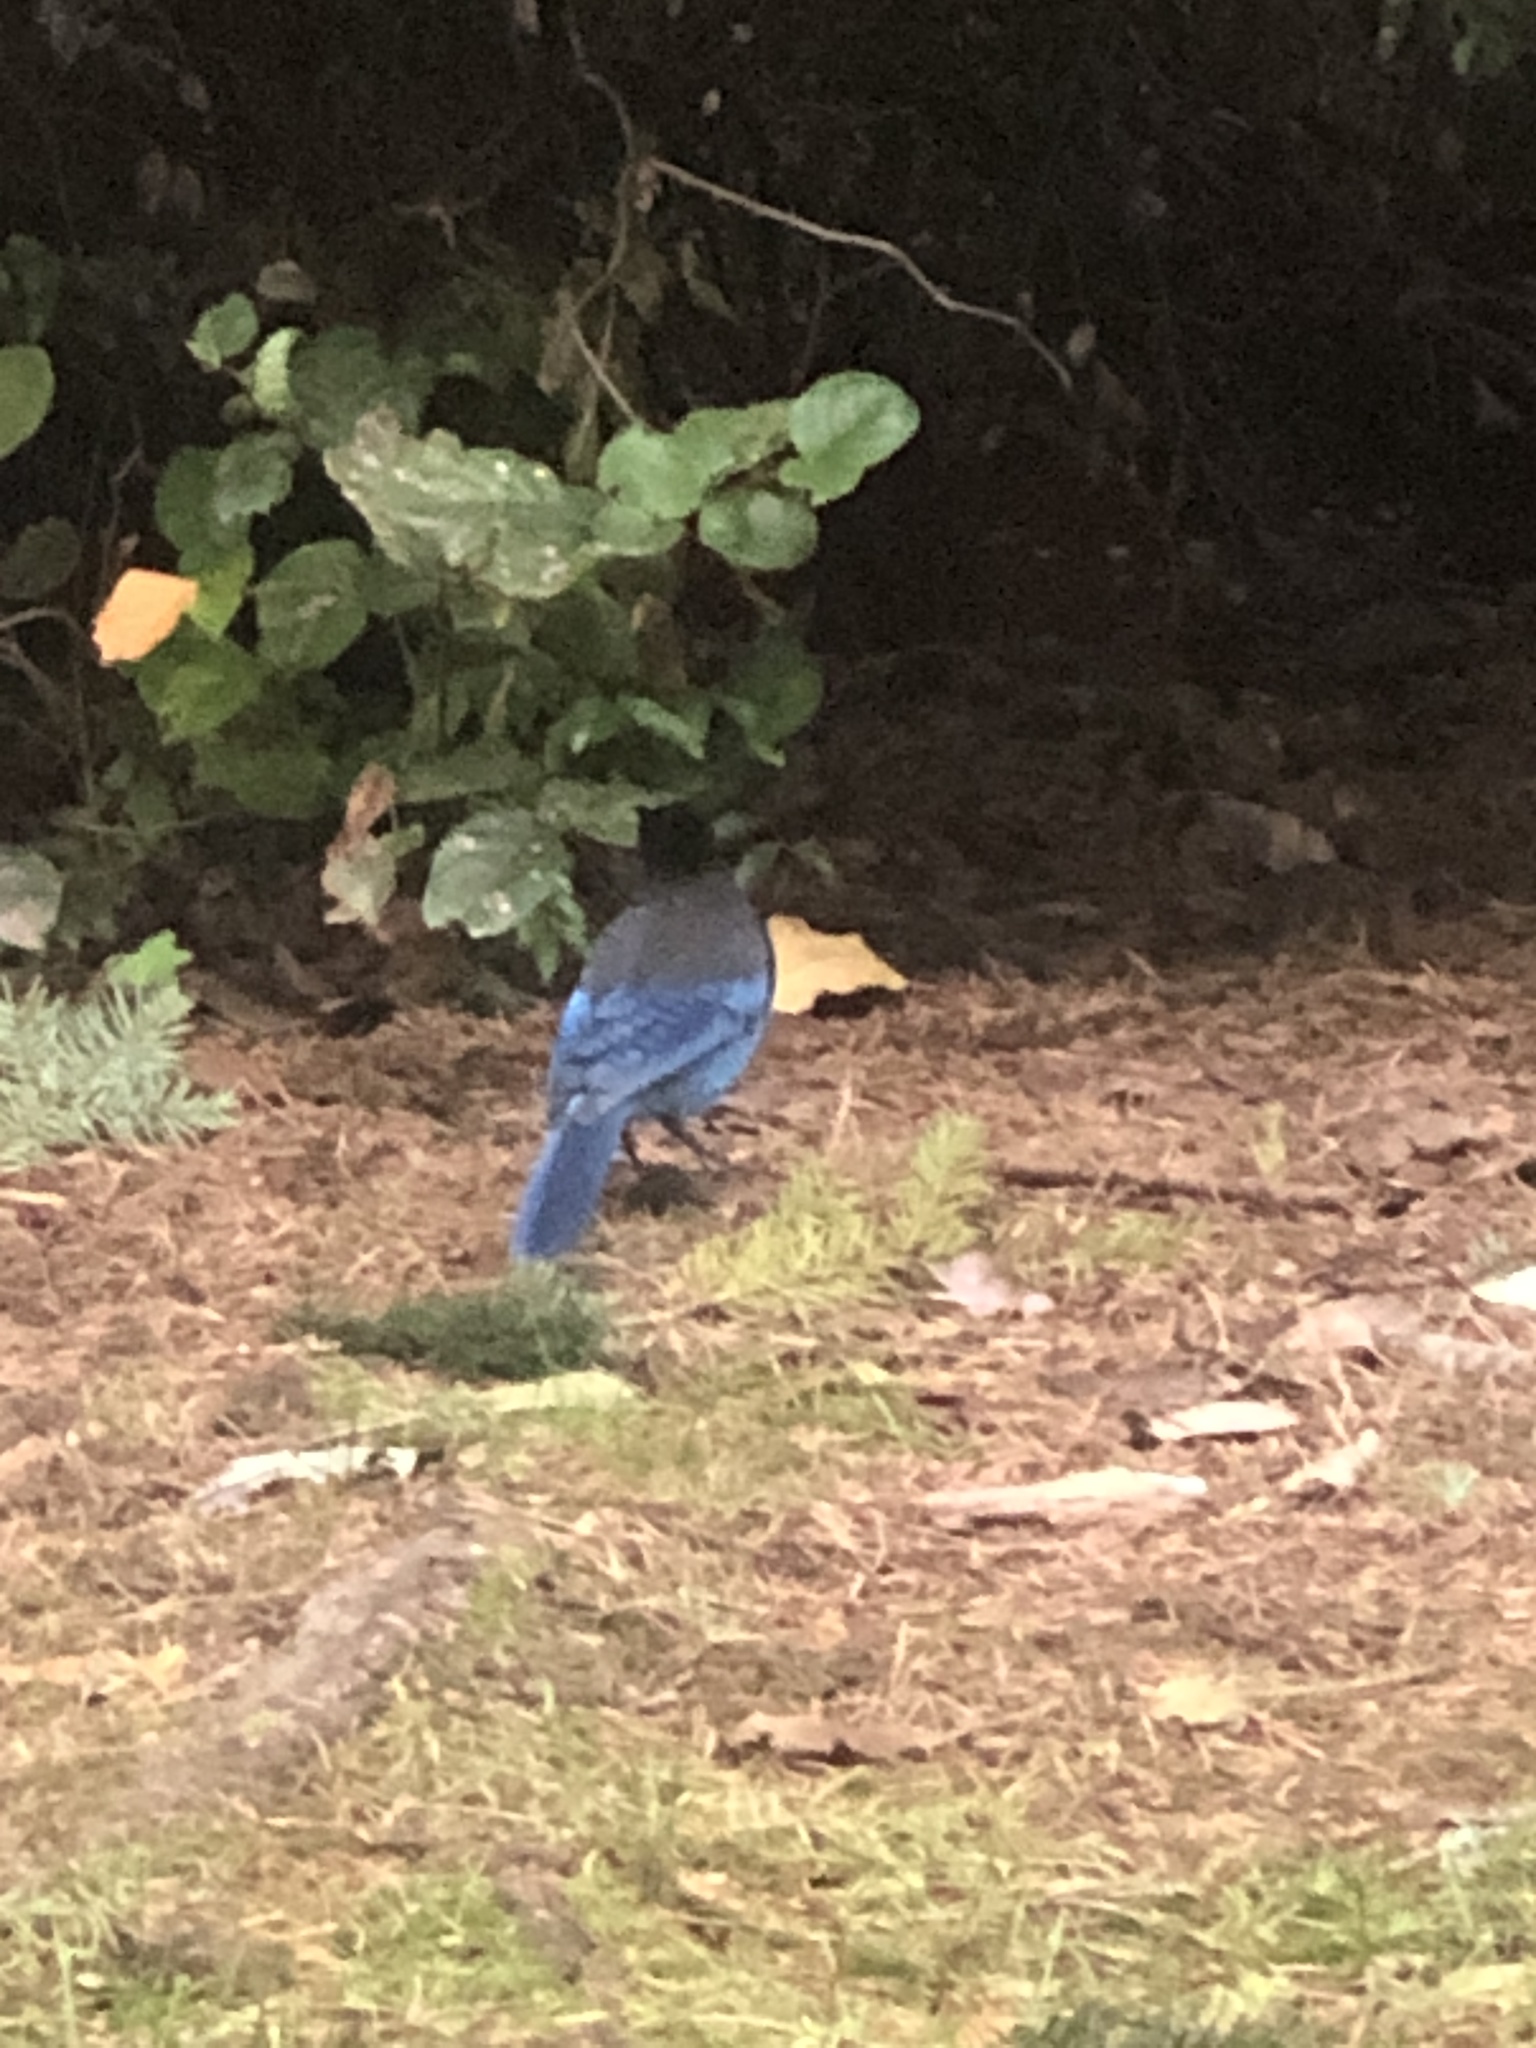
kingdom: Animalia
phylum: Chordata
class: Aves
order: Passeriformes
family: Corvidae
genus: Cyanocitta
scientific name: Cyanocitta stelleri
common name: Steller's jay
